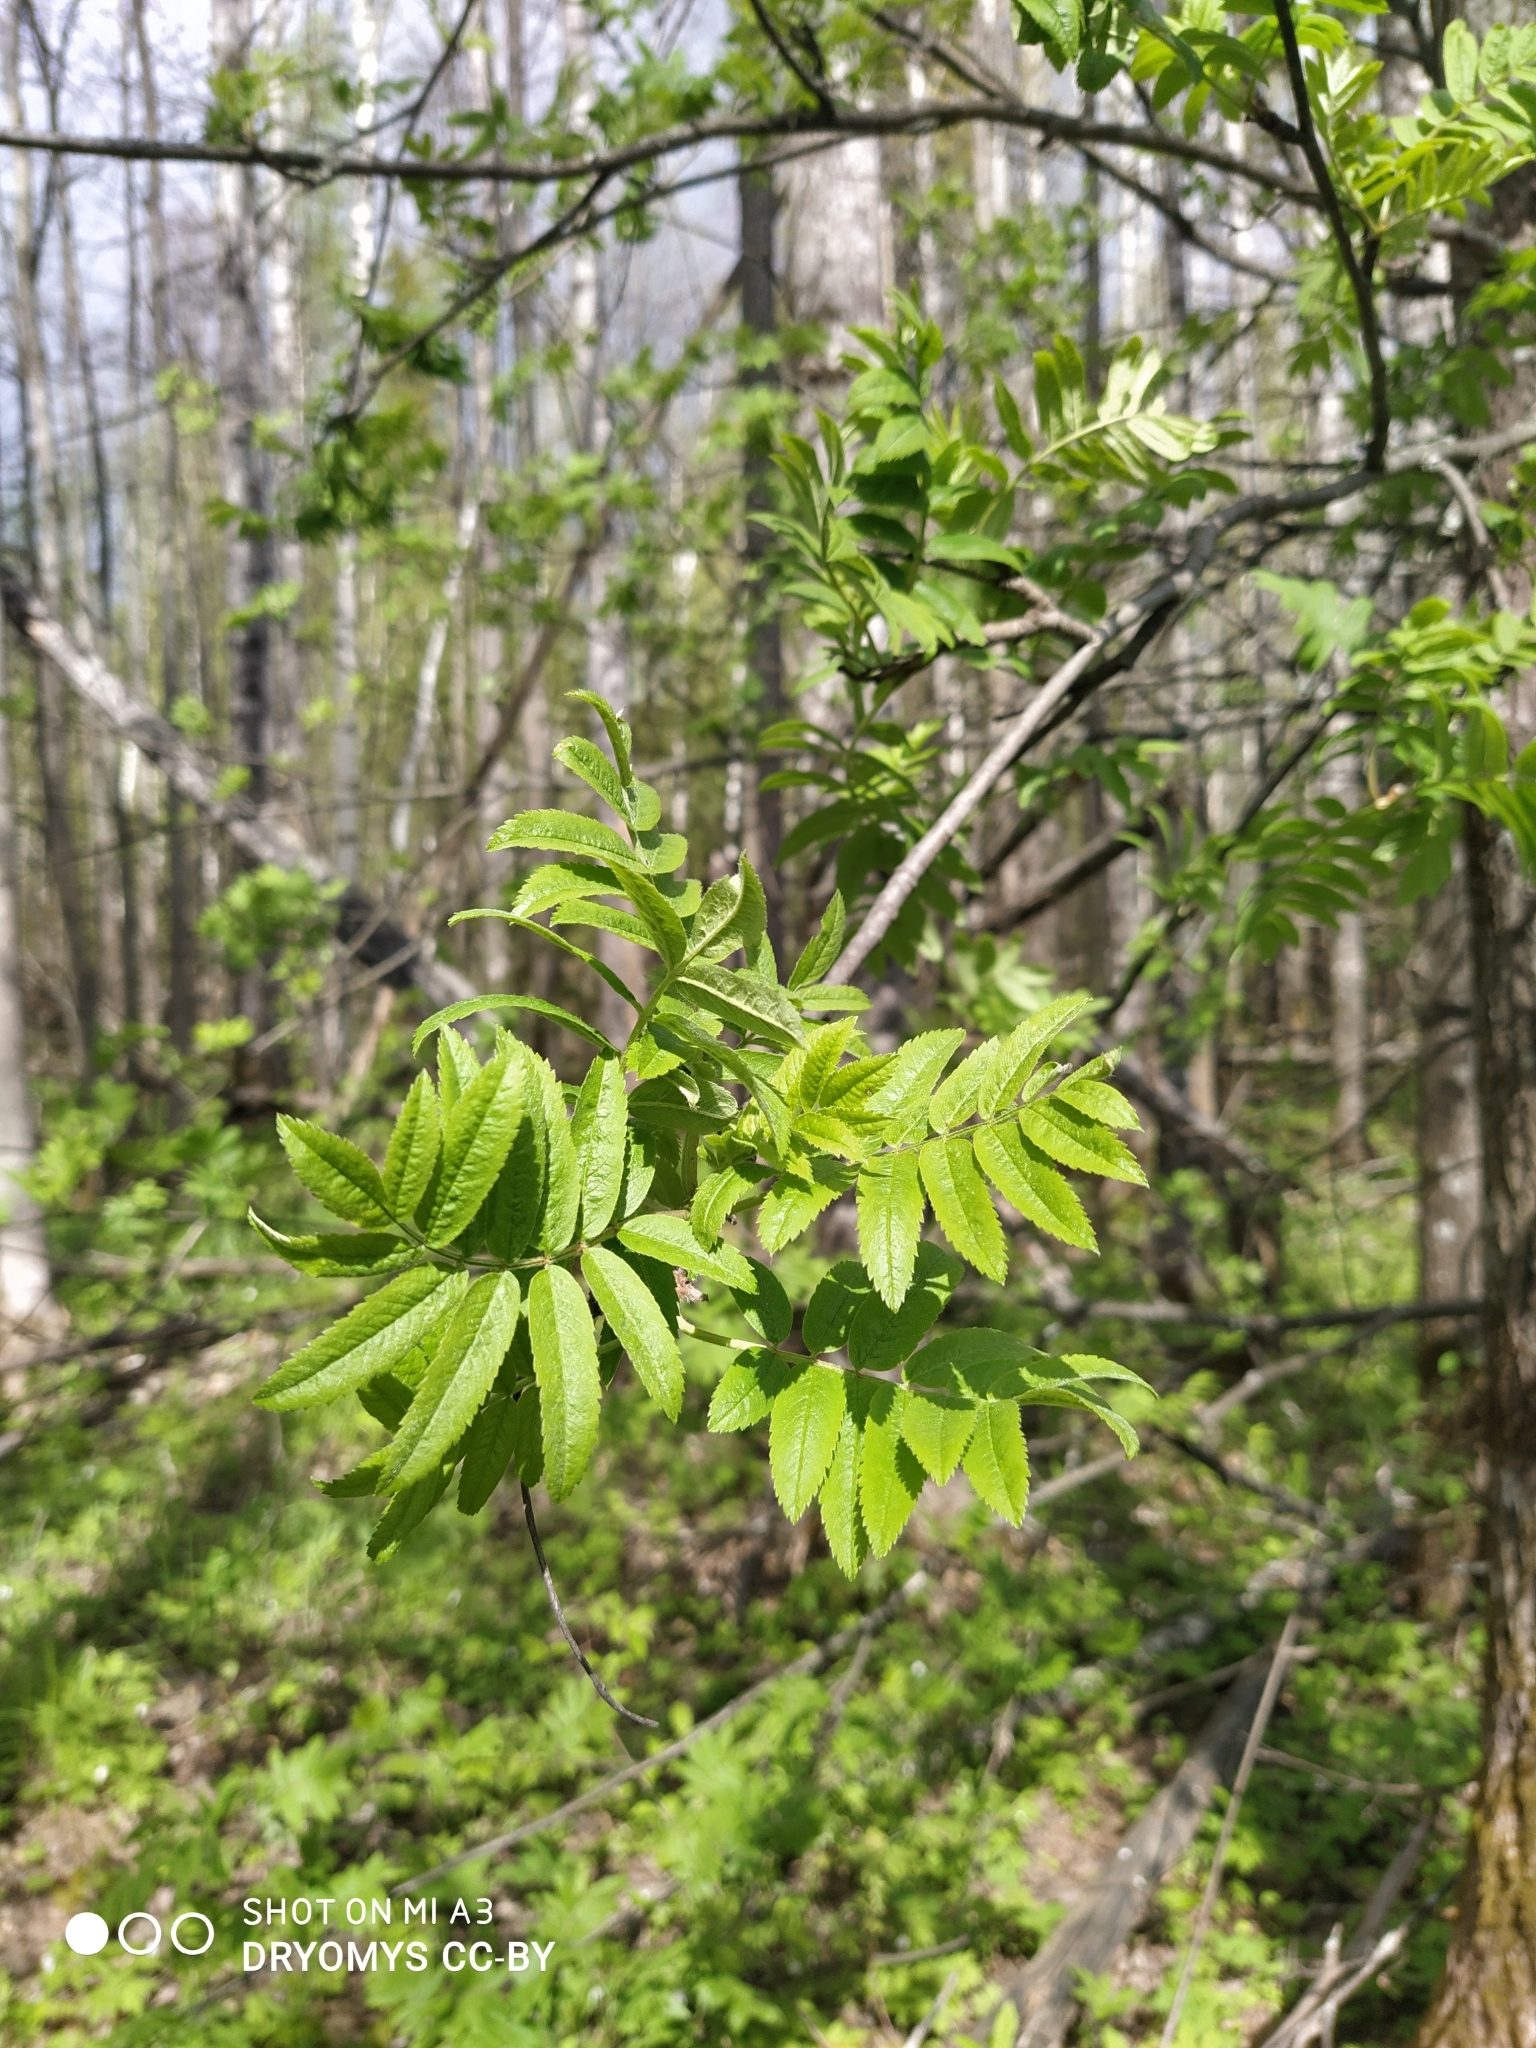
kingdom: Plantae
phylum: Tracheophyta
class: Magnoliopsida
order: Rosales
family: Rosaceae
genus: Sorbus
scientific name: Sorbus aucuparia
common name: Rowan
